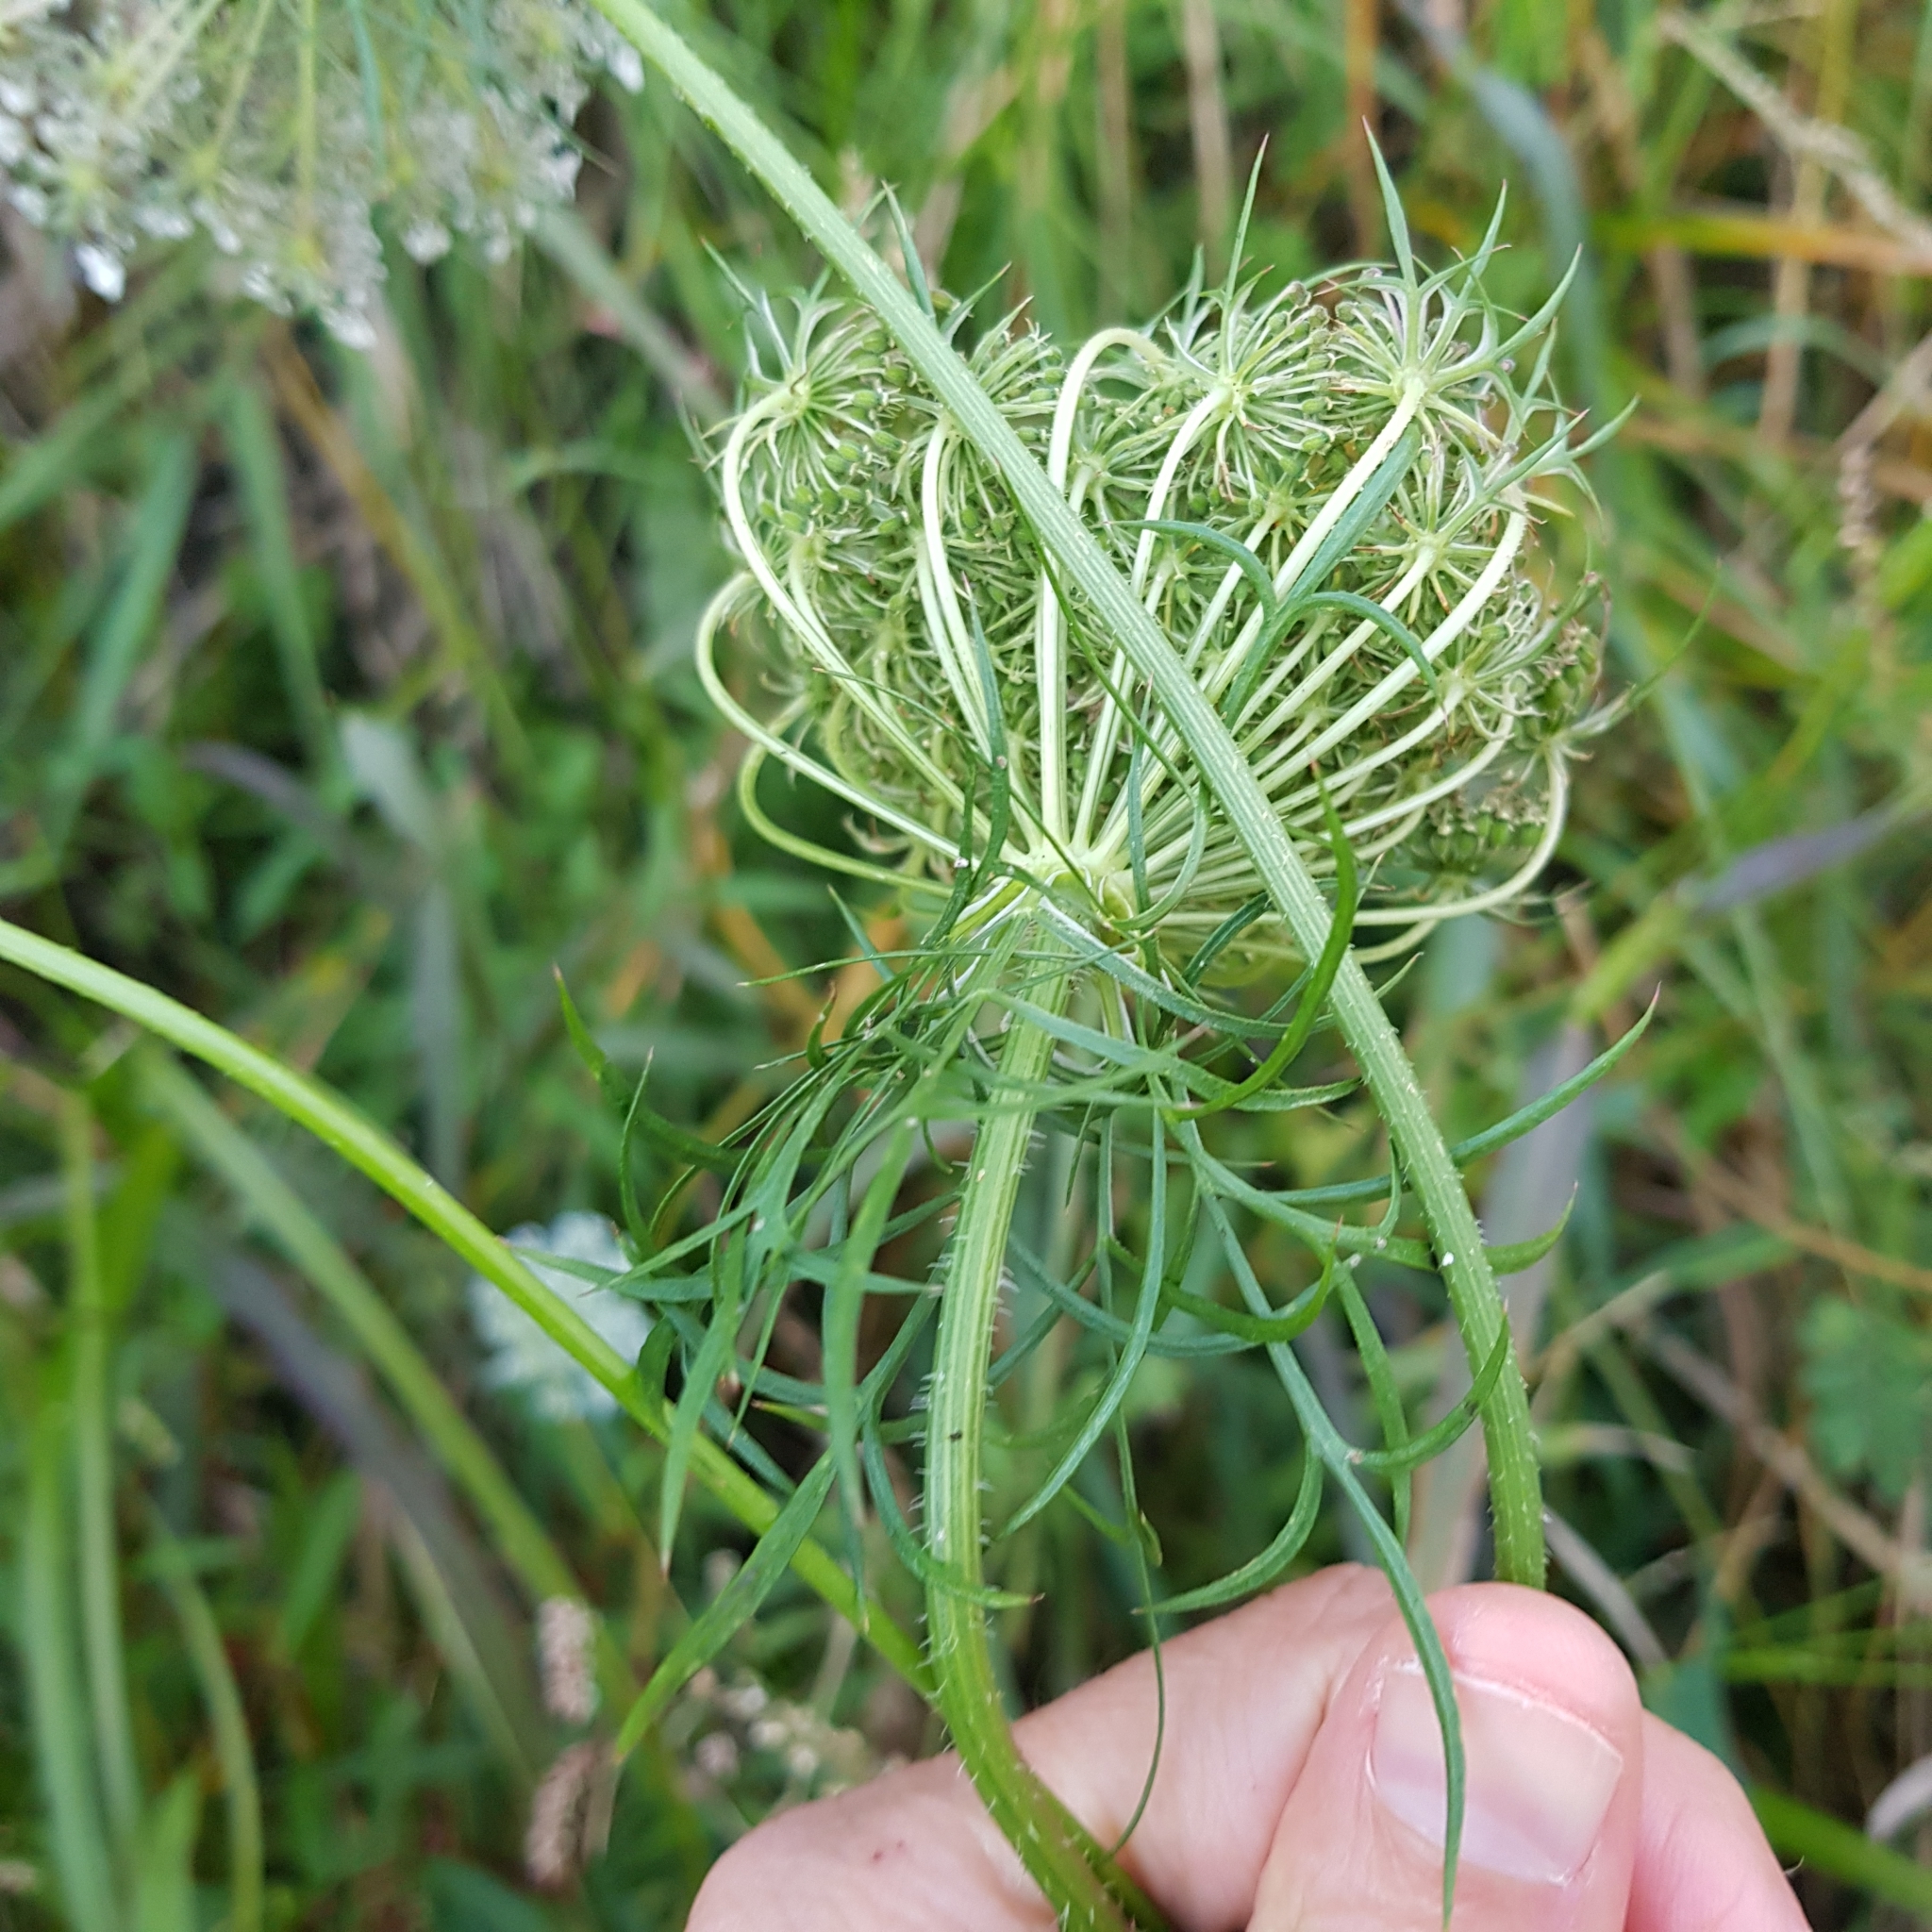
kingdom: Plantae
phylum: Tracheophyta
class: Magnoliopsida
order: Apiales
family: Apiaceae
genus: Daucus
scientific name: Daucus carota
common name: Wild carrot
